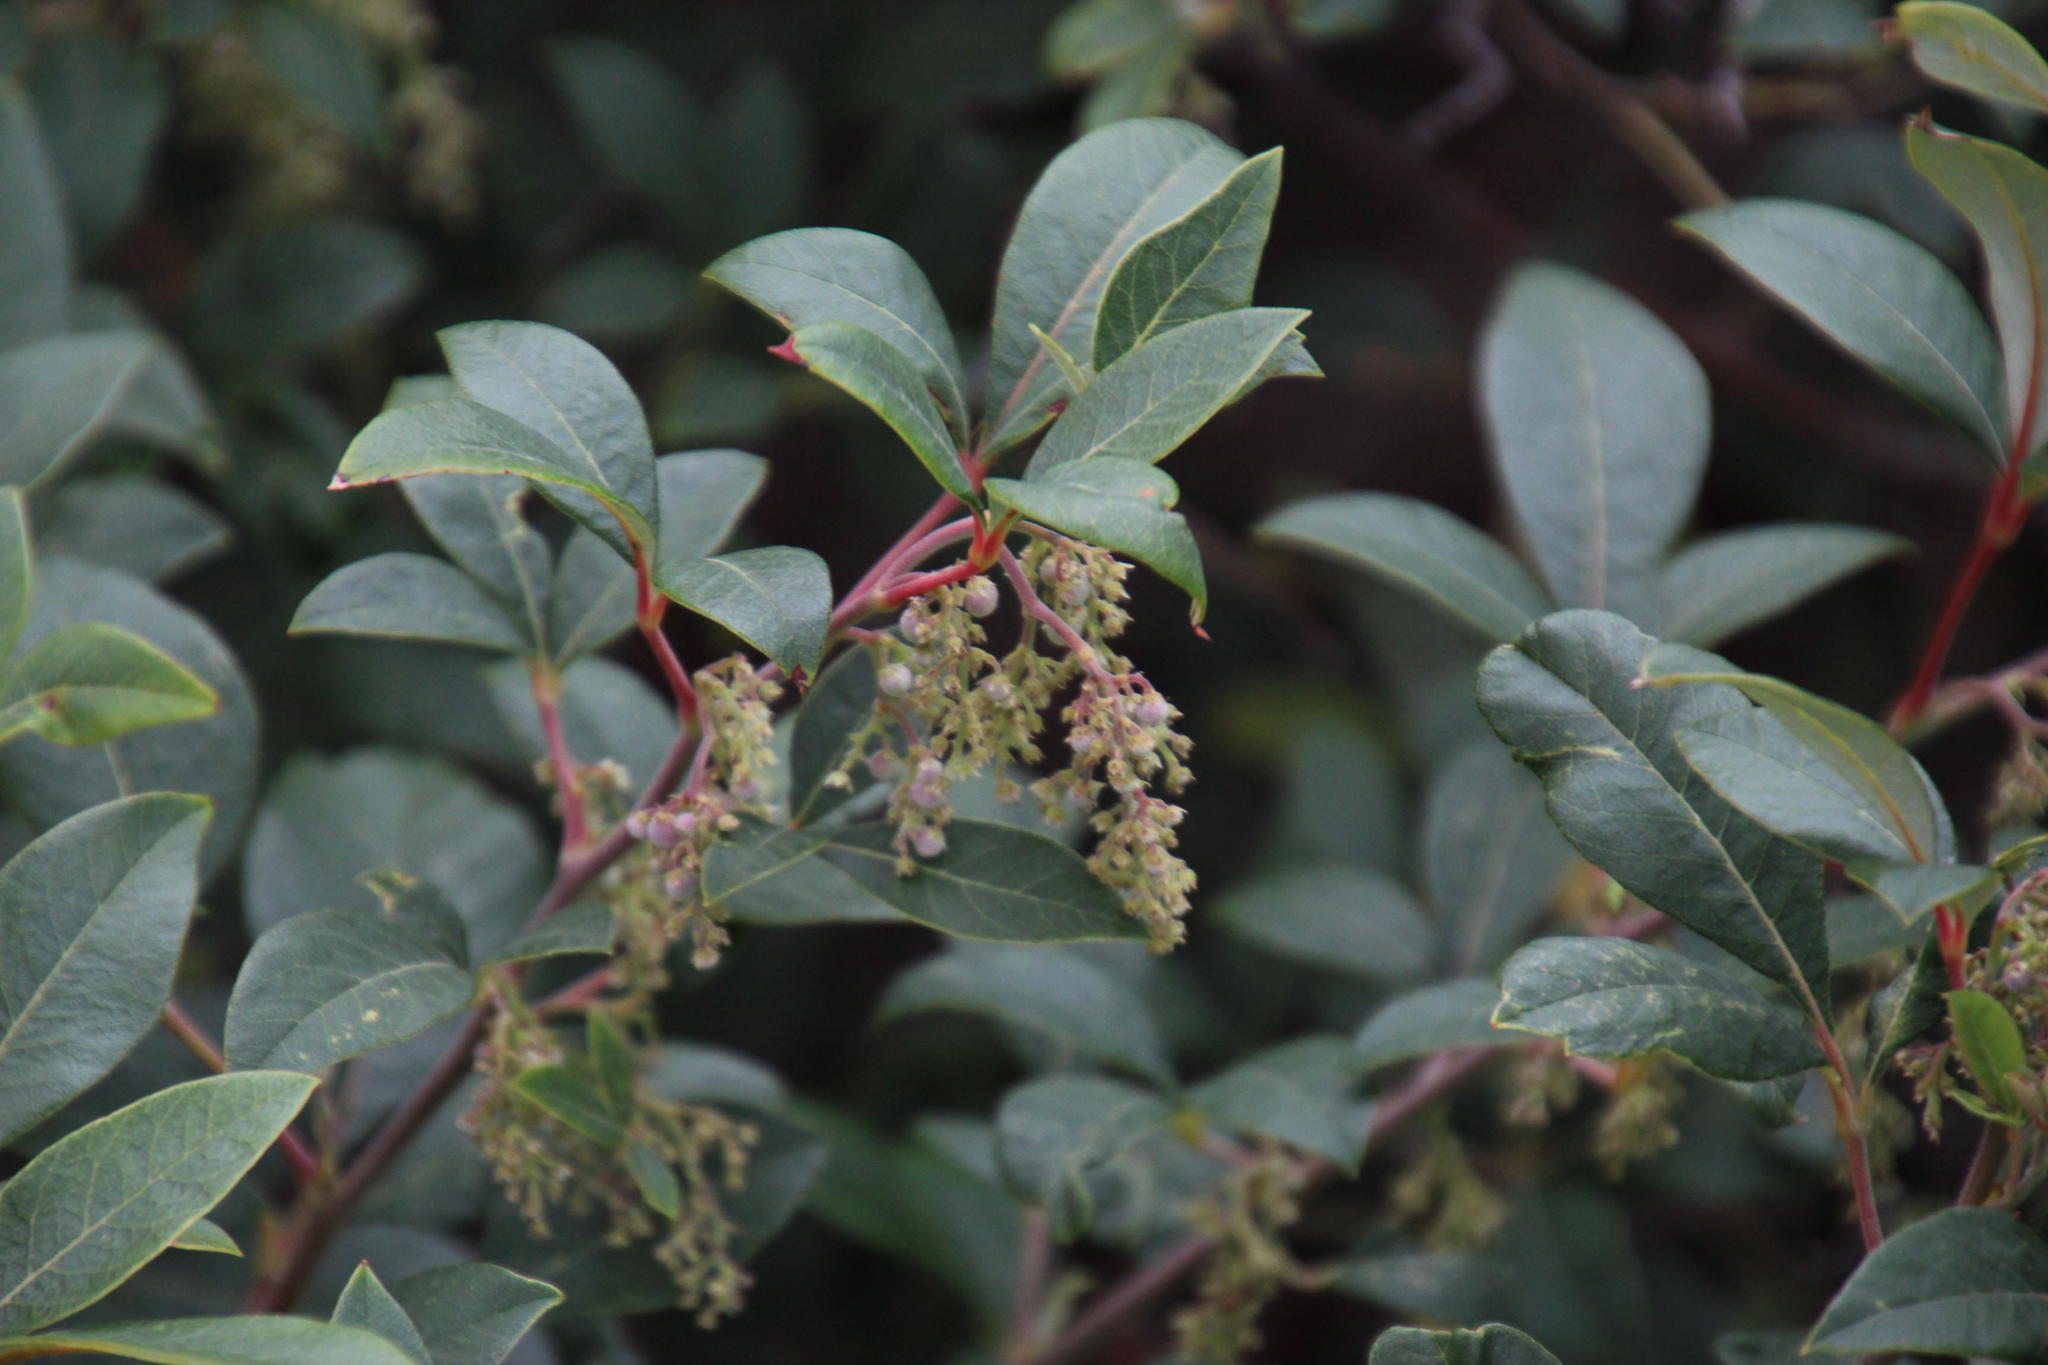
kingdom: Plantae
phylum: Tracheophyta
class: Magnoliopsida
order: Sapindales
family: Anacardiaceae
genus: Searsia
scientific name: Searsia tomentosa
